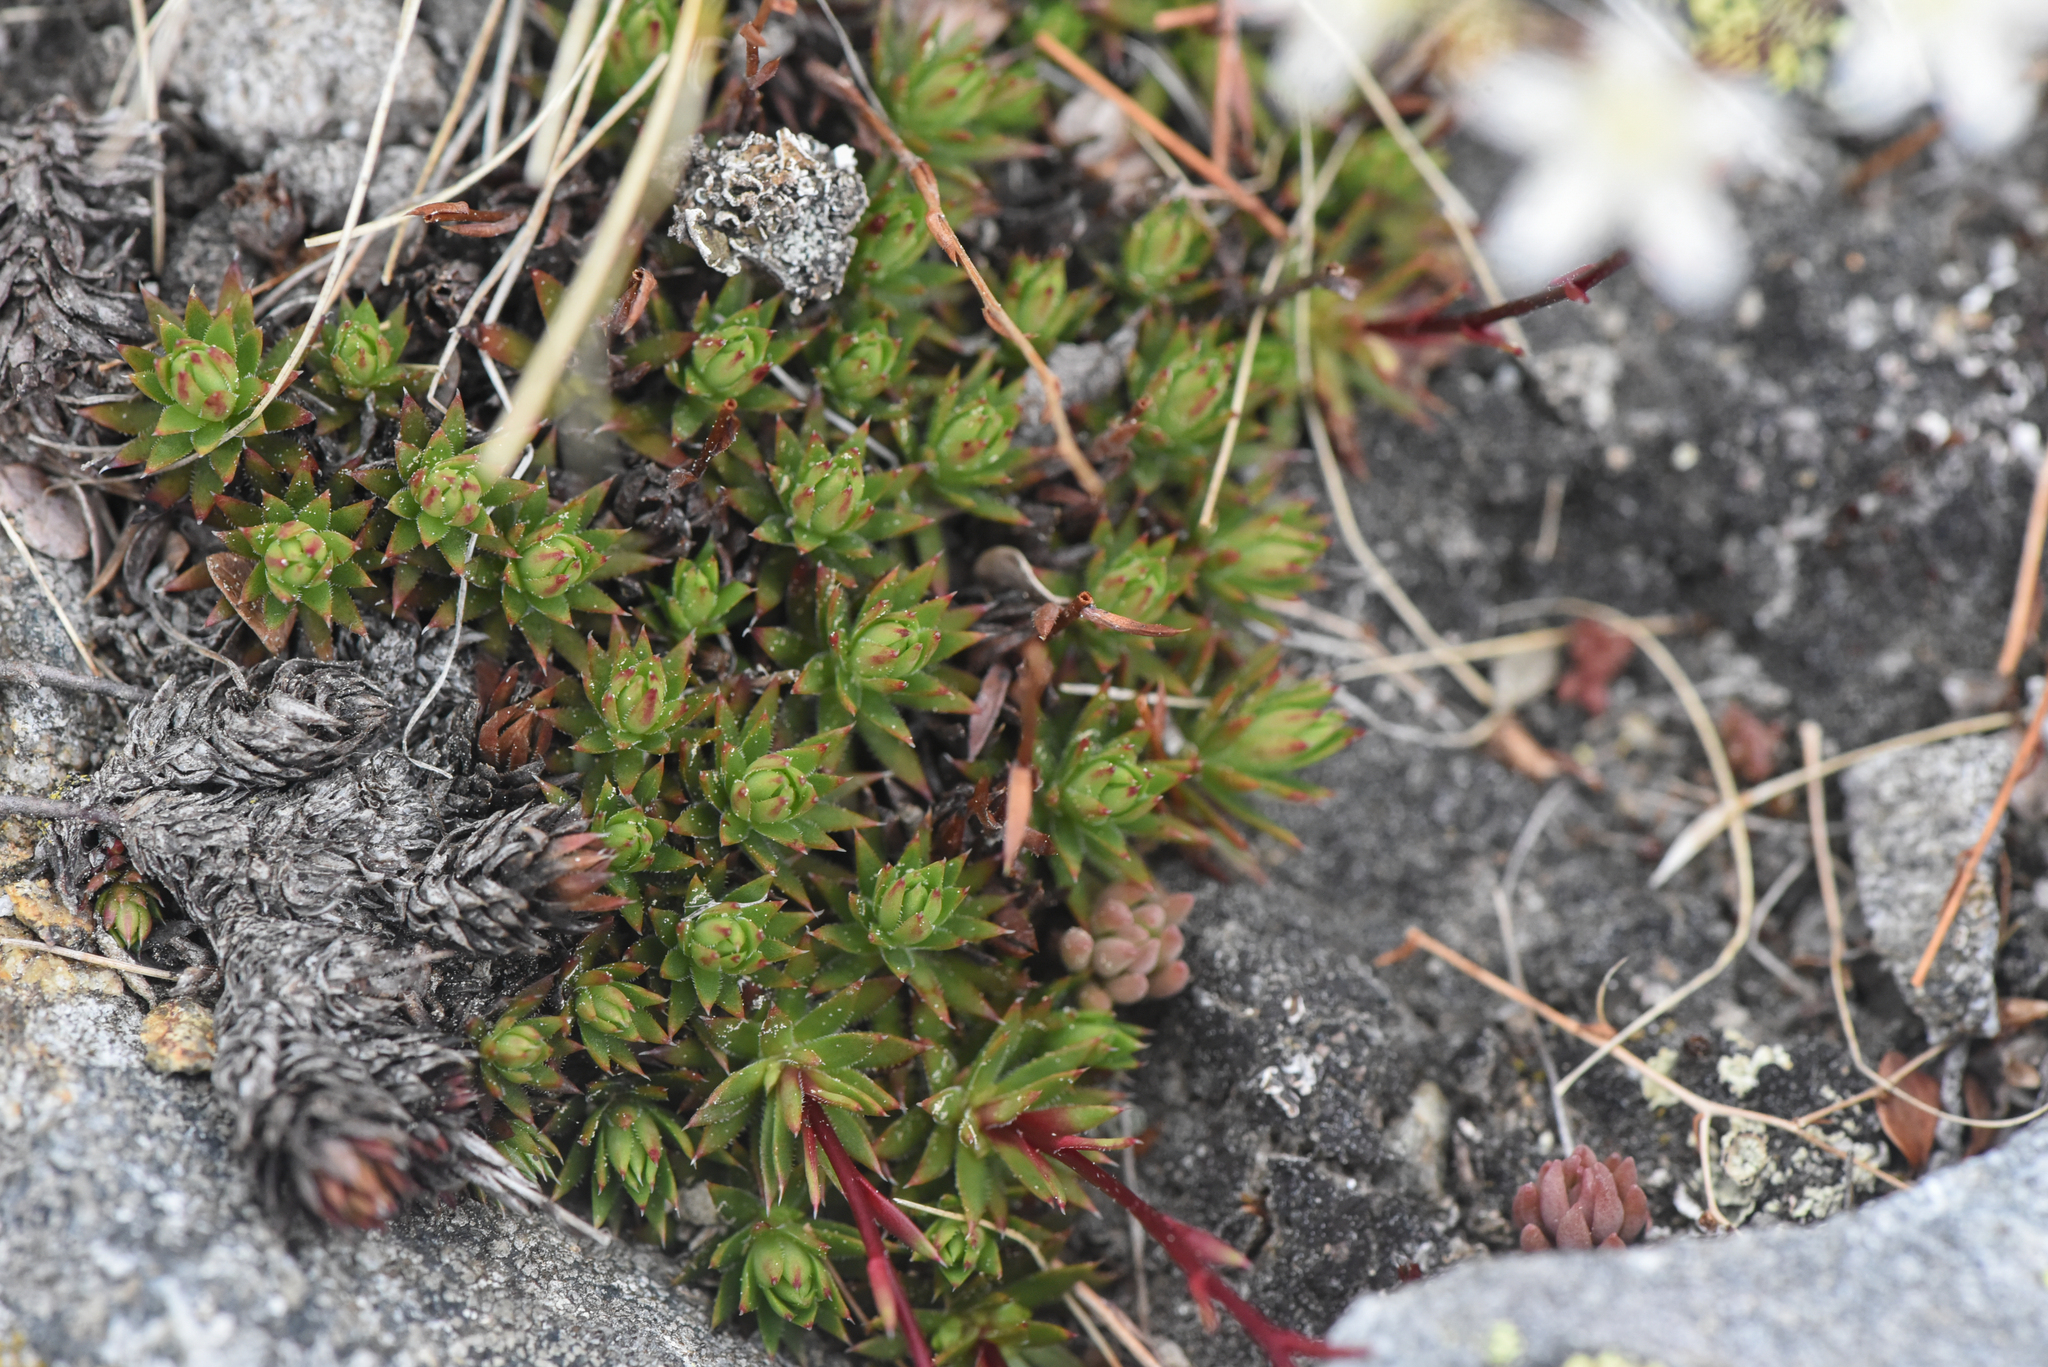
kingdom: Plantae
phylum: Tracheophyta
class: Magnoliopsida
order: Saxifragales
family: Saxifragaceae
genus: Saxifraga
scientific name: Saxifraga bronchialis
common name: Matted saxifrage
